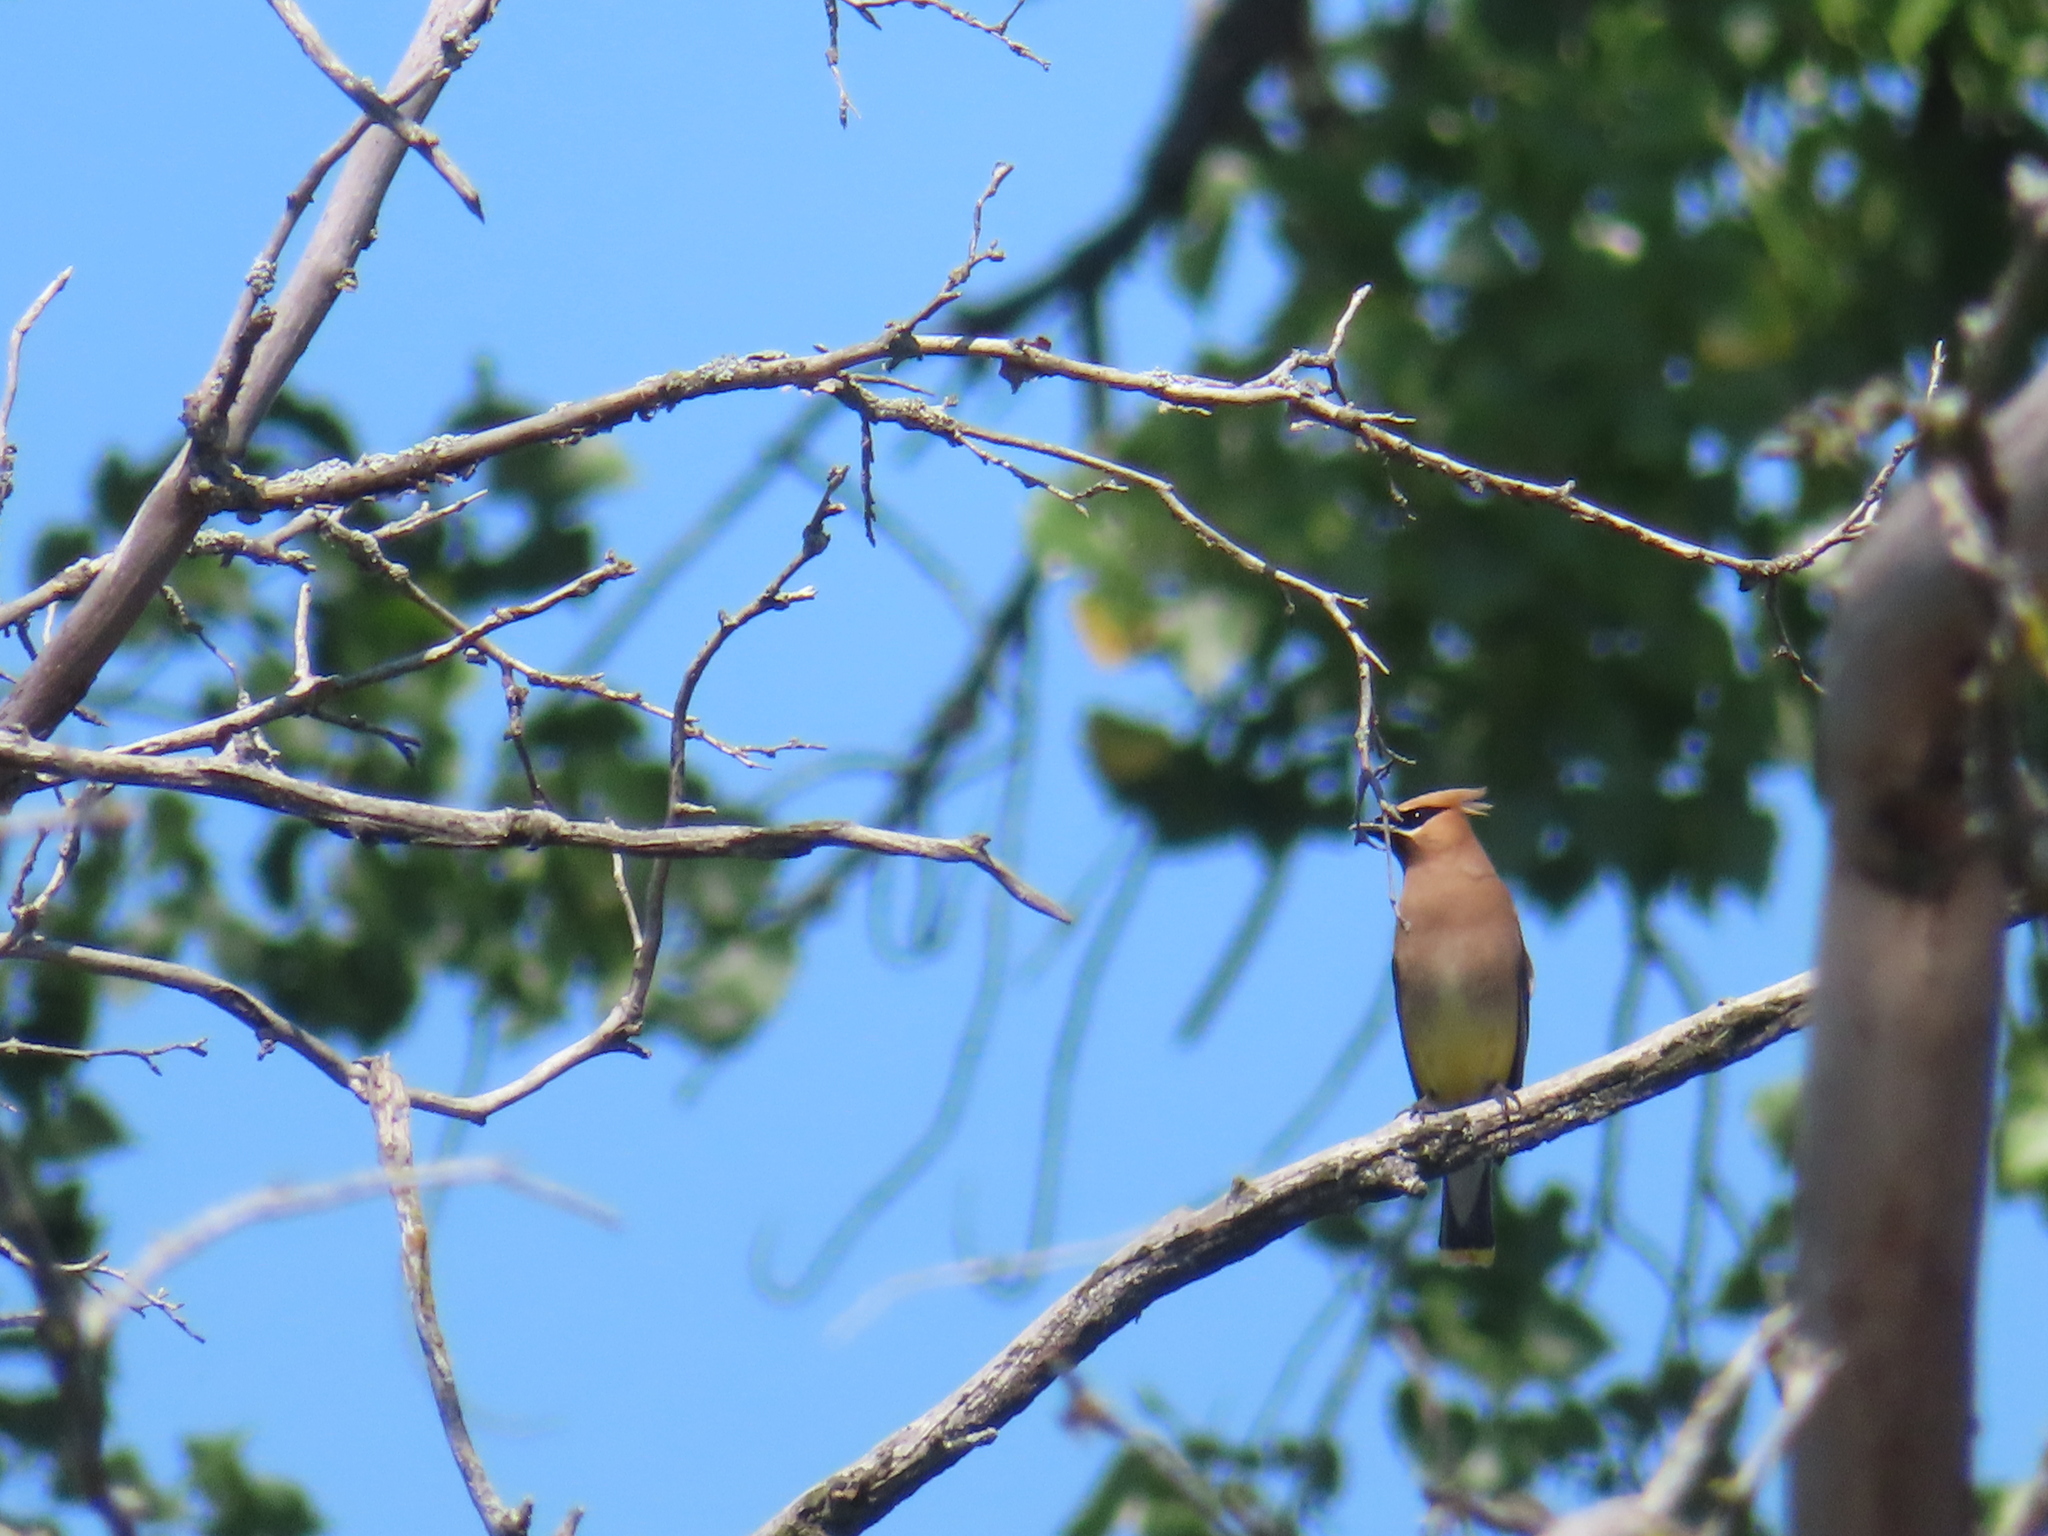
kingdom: Animalia
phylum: Chordata
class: Aves
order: Passeriformes
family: Bombycillidae
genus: Bombycilla
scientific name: Bombycilla cedrorum
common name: Cedar waxwing
